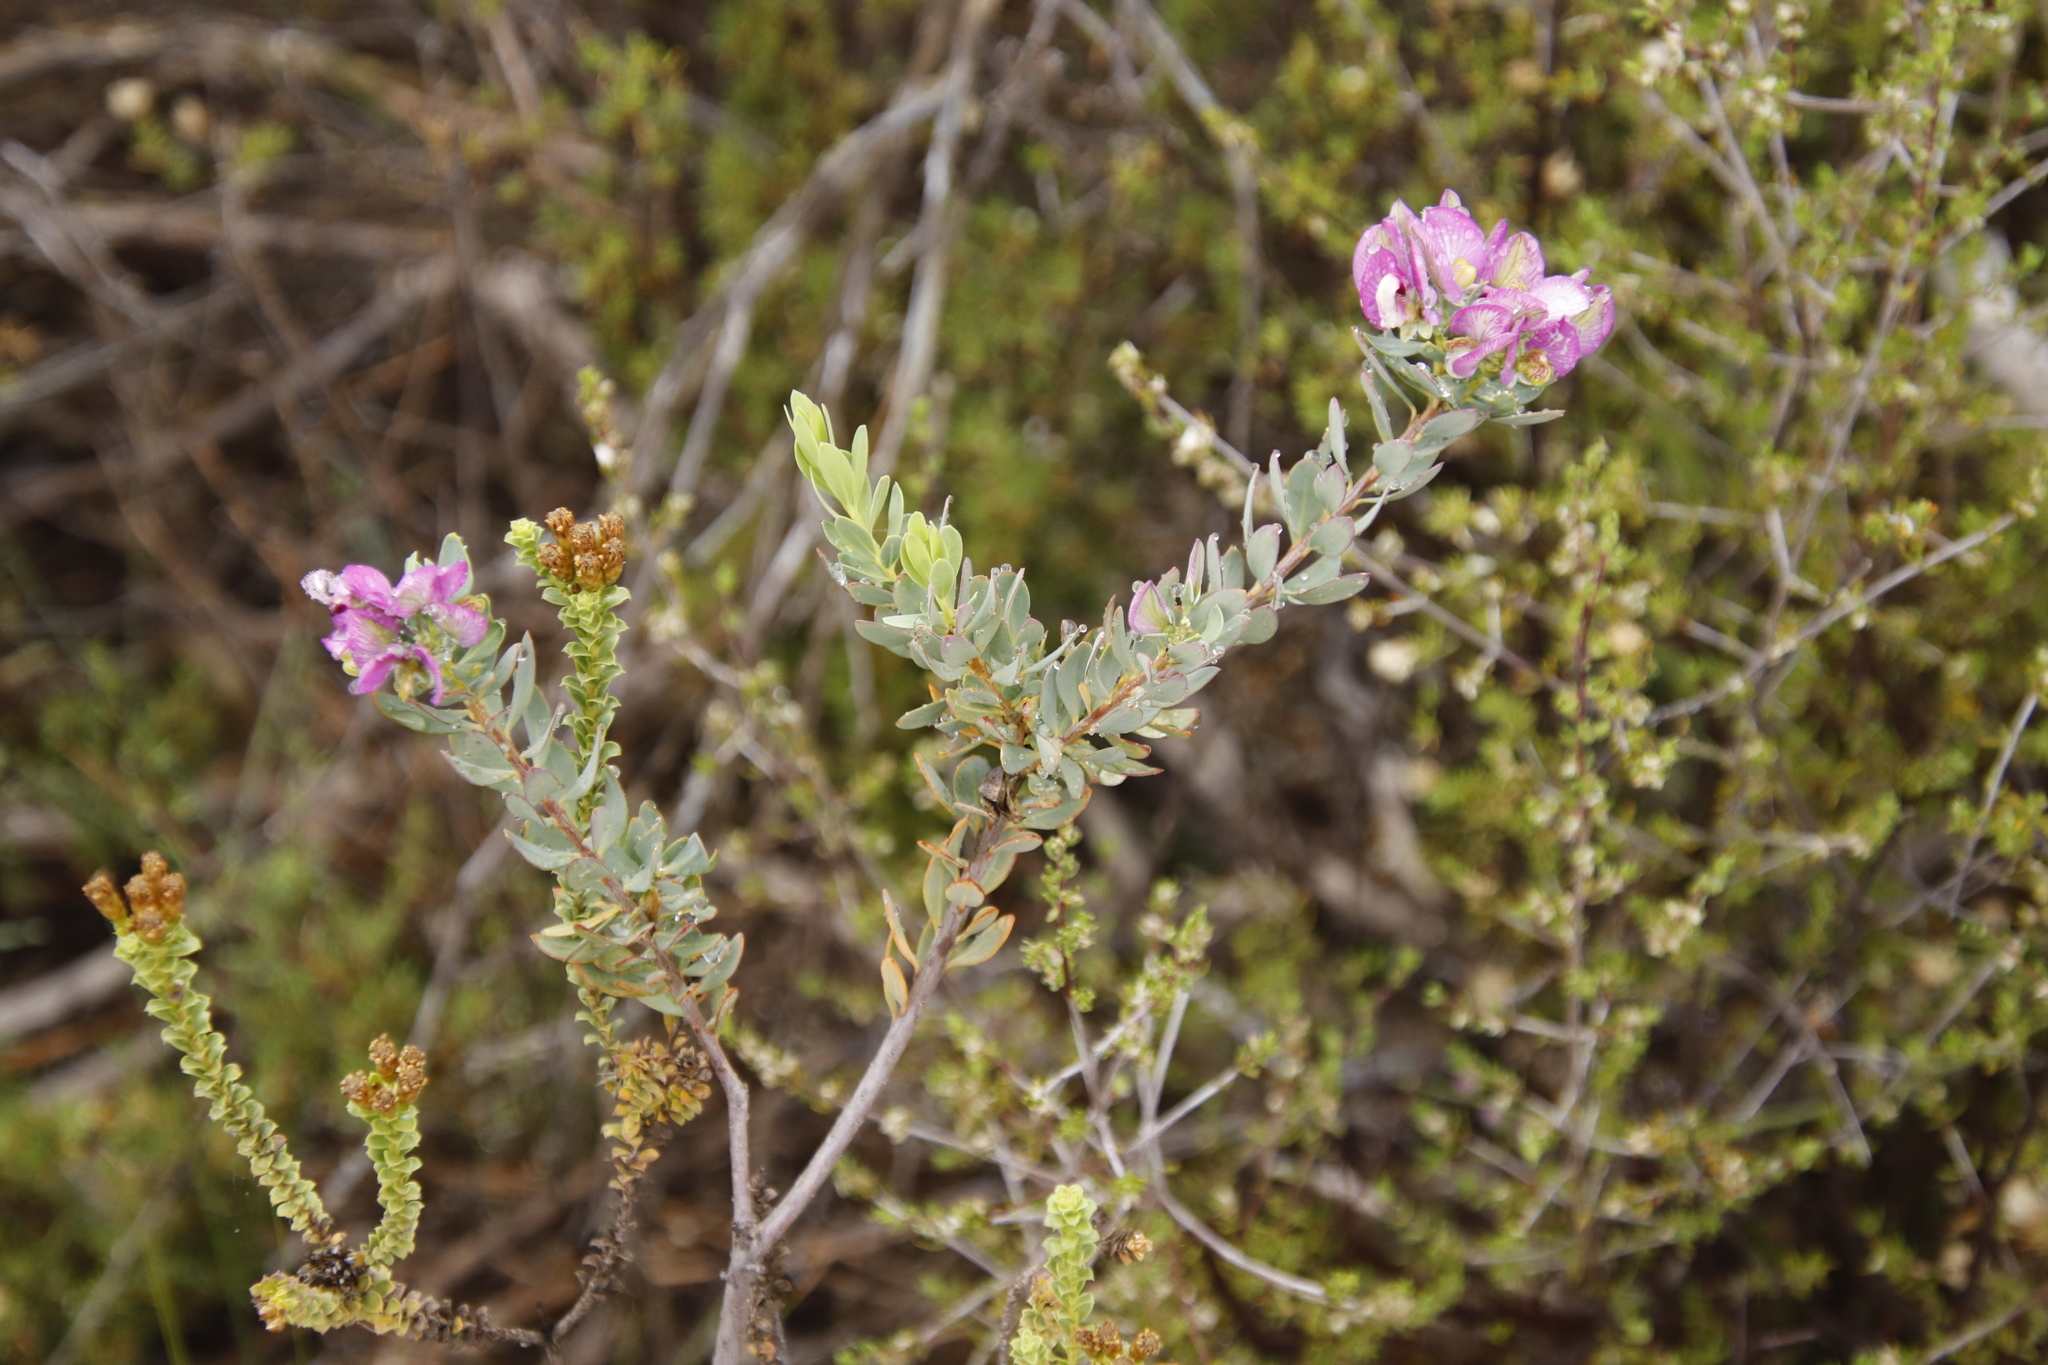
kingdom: Plantae
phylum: Tracheophyta
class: Magnoliopsida
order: Fabales
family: Polygalaceae
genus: Polygala
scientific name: Polygala myrtifolia
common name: Myrtle-leaf milkwort
